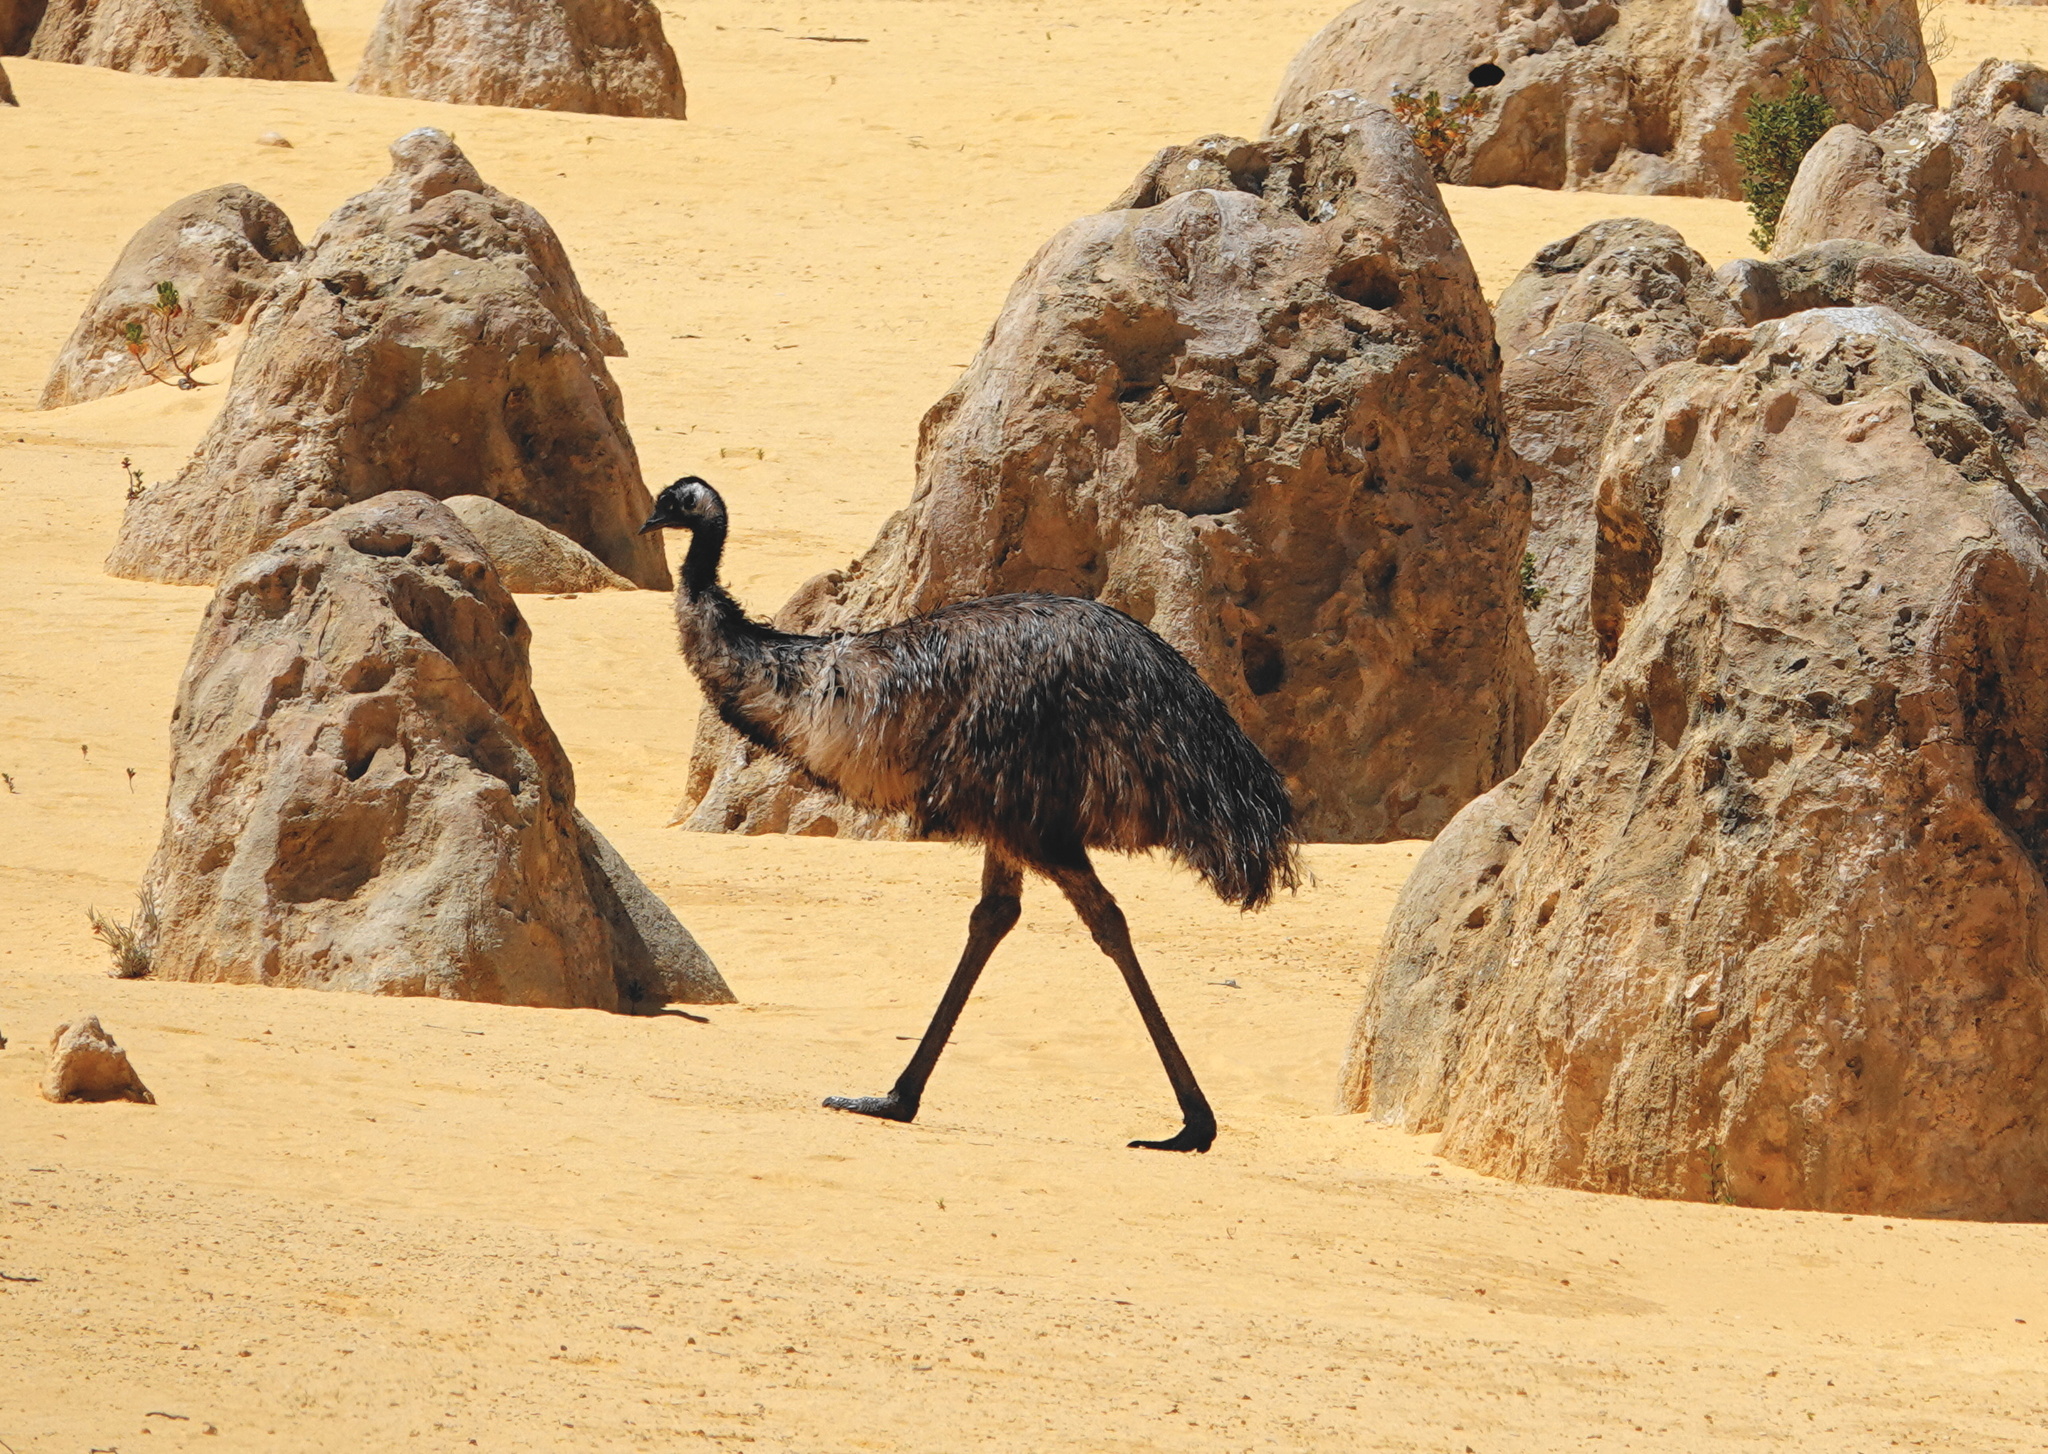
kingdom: Animalia
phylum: Chordata
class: Aves
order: Casuariiformes
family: Dromaiidae
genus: Dromaius
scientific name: Dromaius novaehollandiae
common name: Emu
